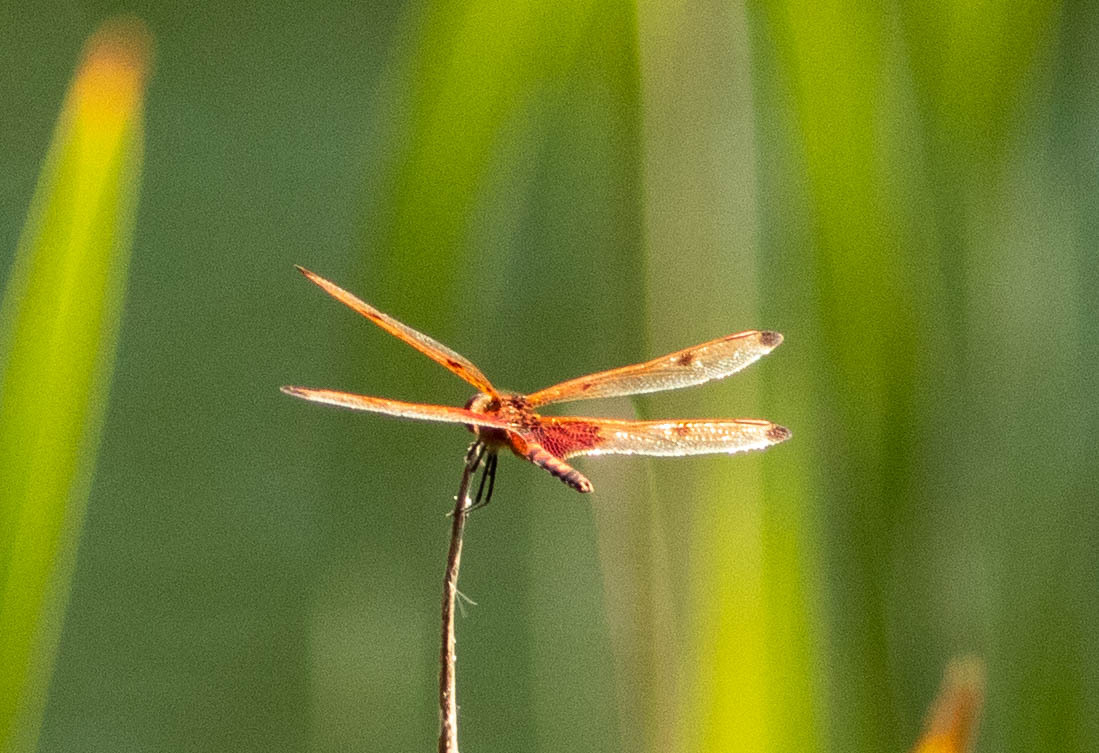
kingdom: Animalia
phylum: Arthropoda
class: Insecta
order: Odonata
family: Libellulidae
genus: Celithemis
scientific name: Celithemis elisa
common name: Calico pennant
